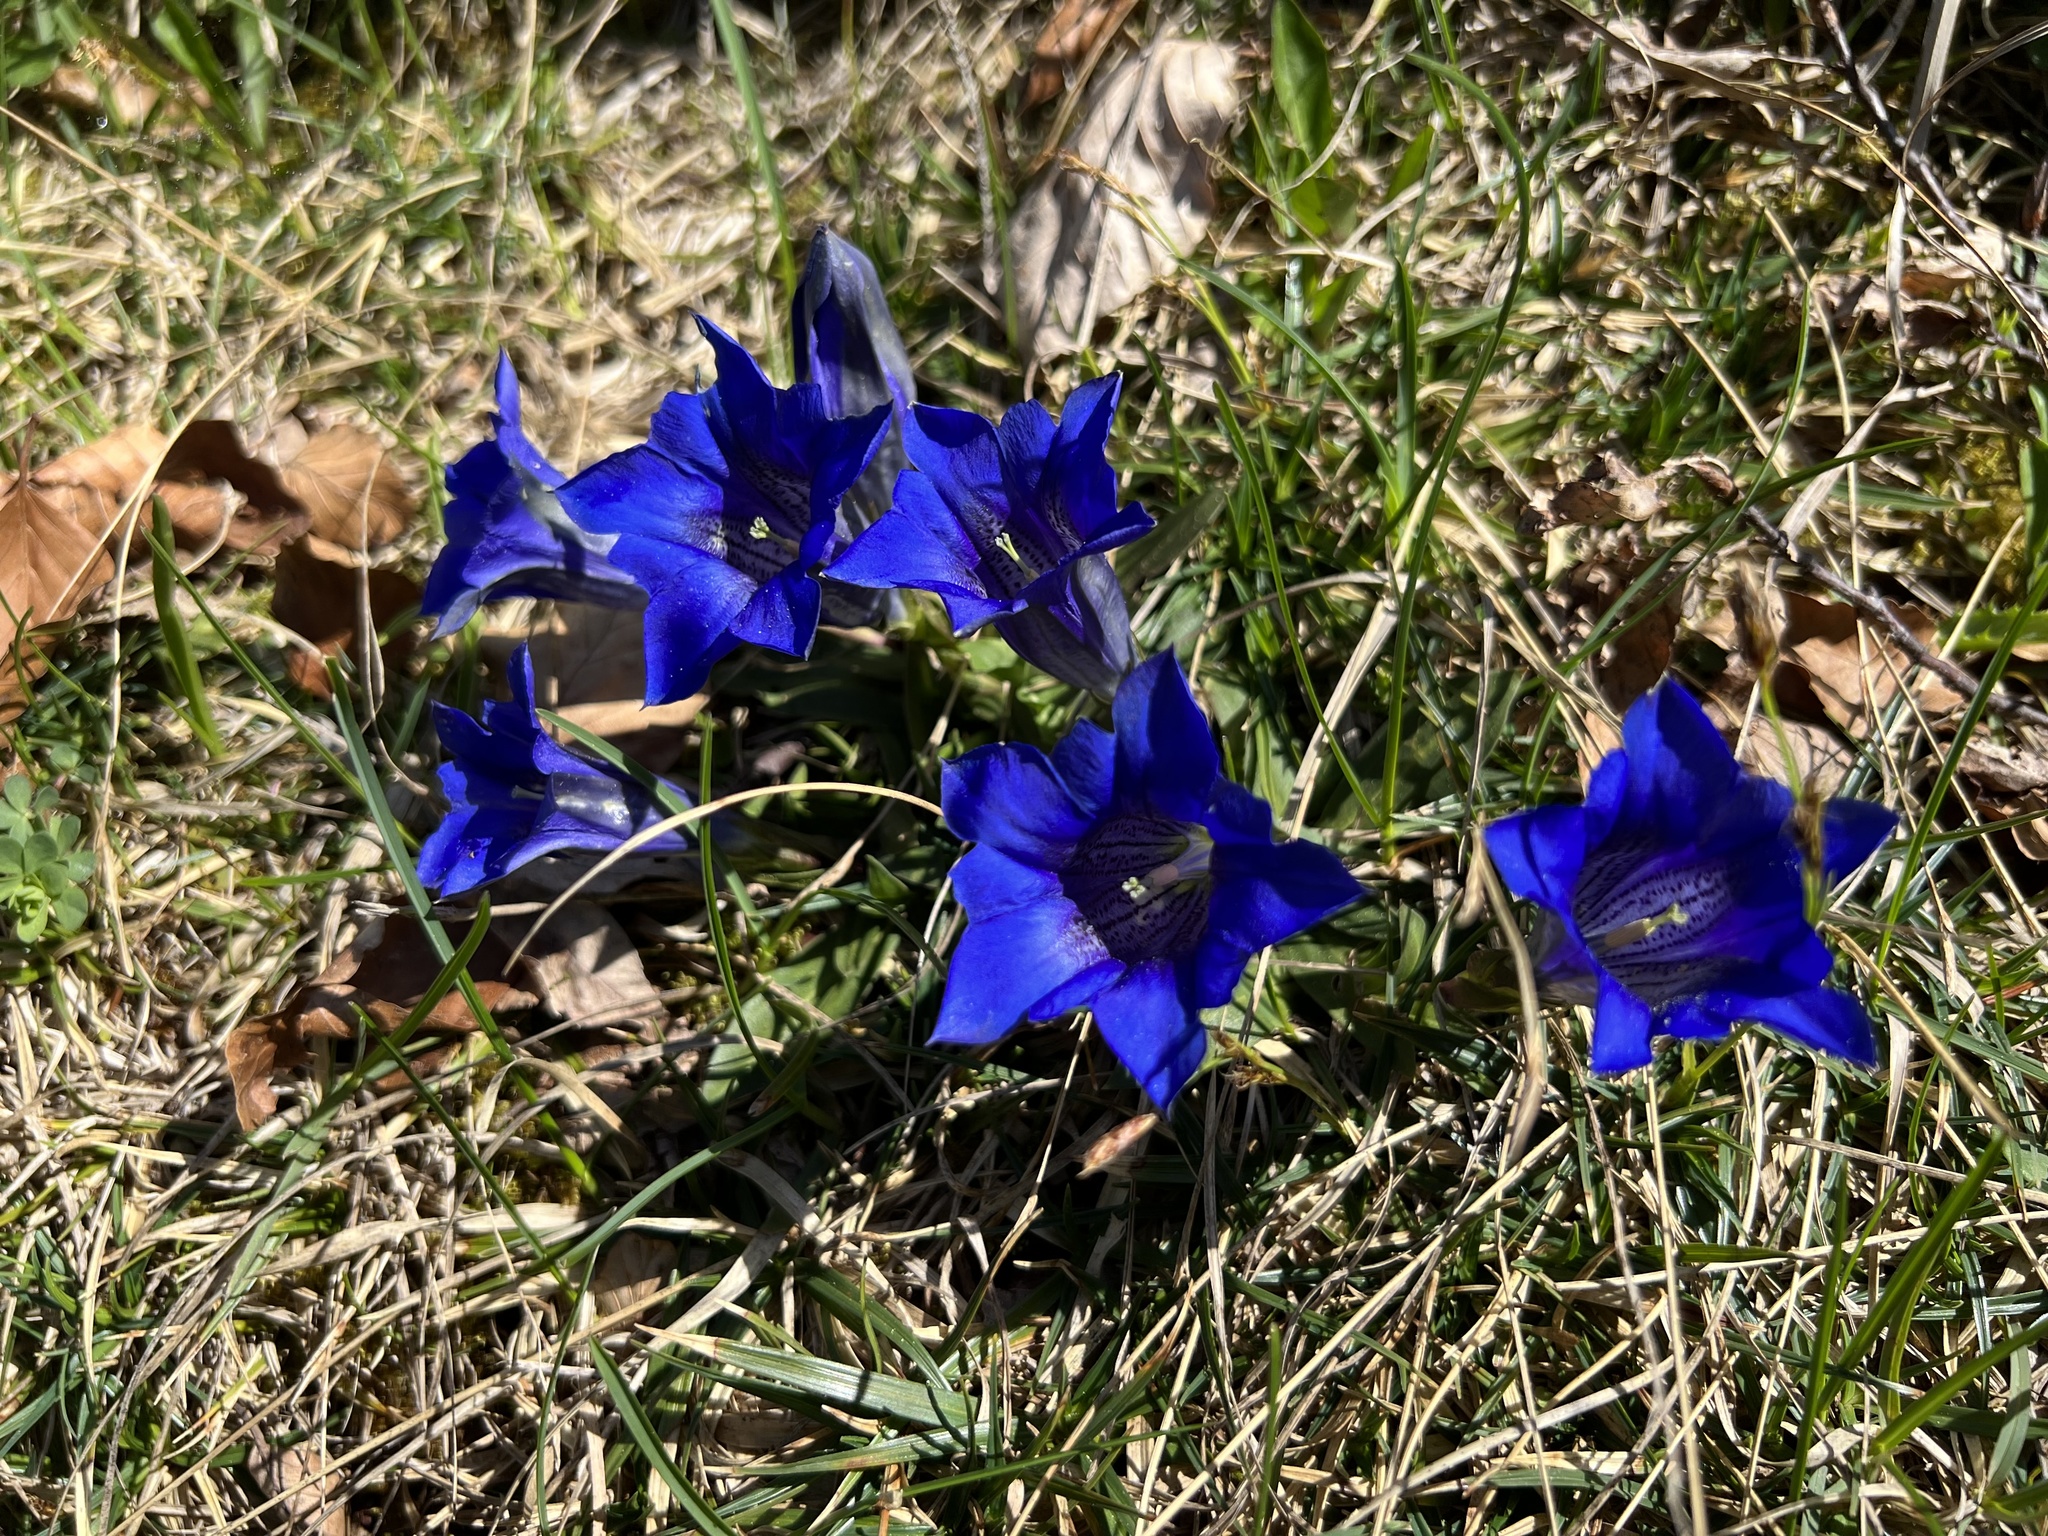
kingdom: Plantae
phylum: Tracheophyta
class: Magnoliopsida
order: Gentianales
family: Gentianaceae
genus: Gentiana
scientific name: Gentiana clusii
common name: Trumpet gentian
